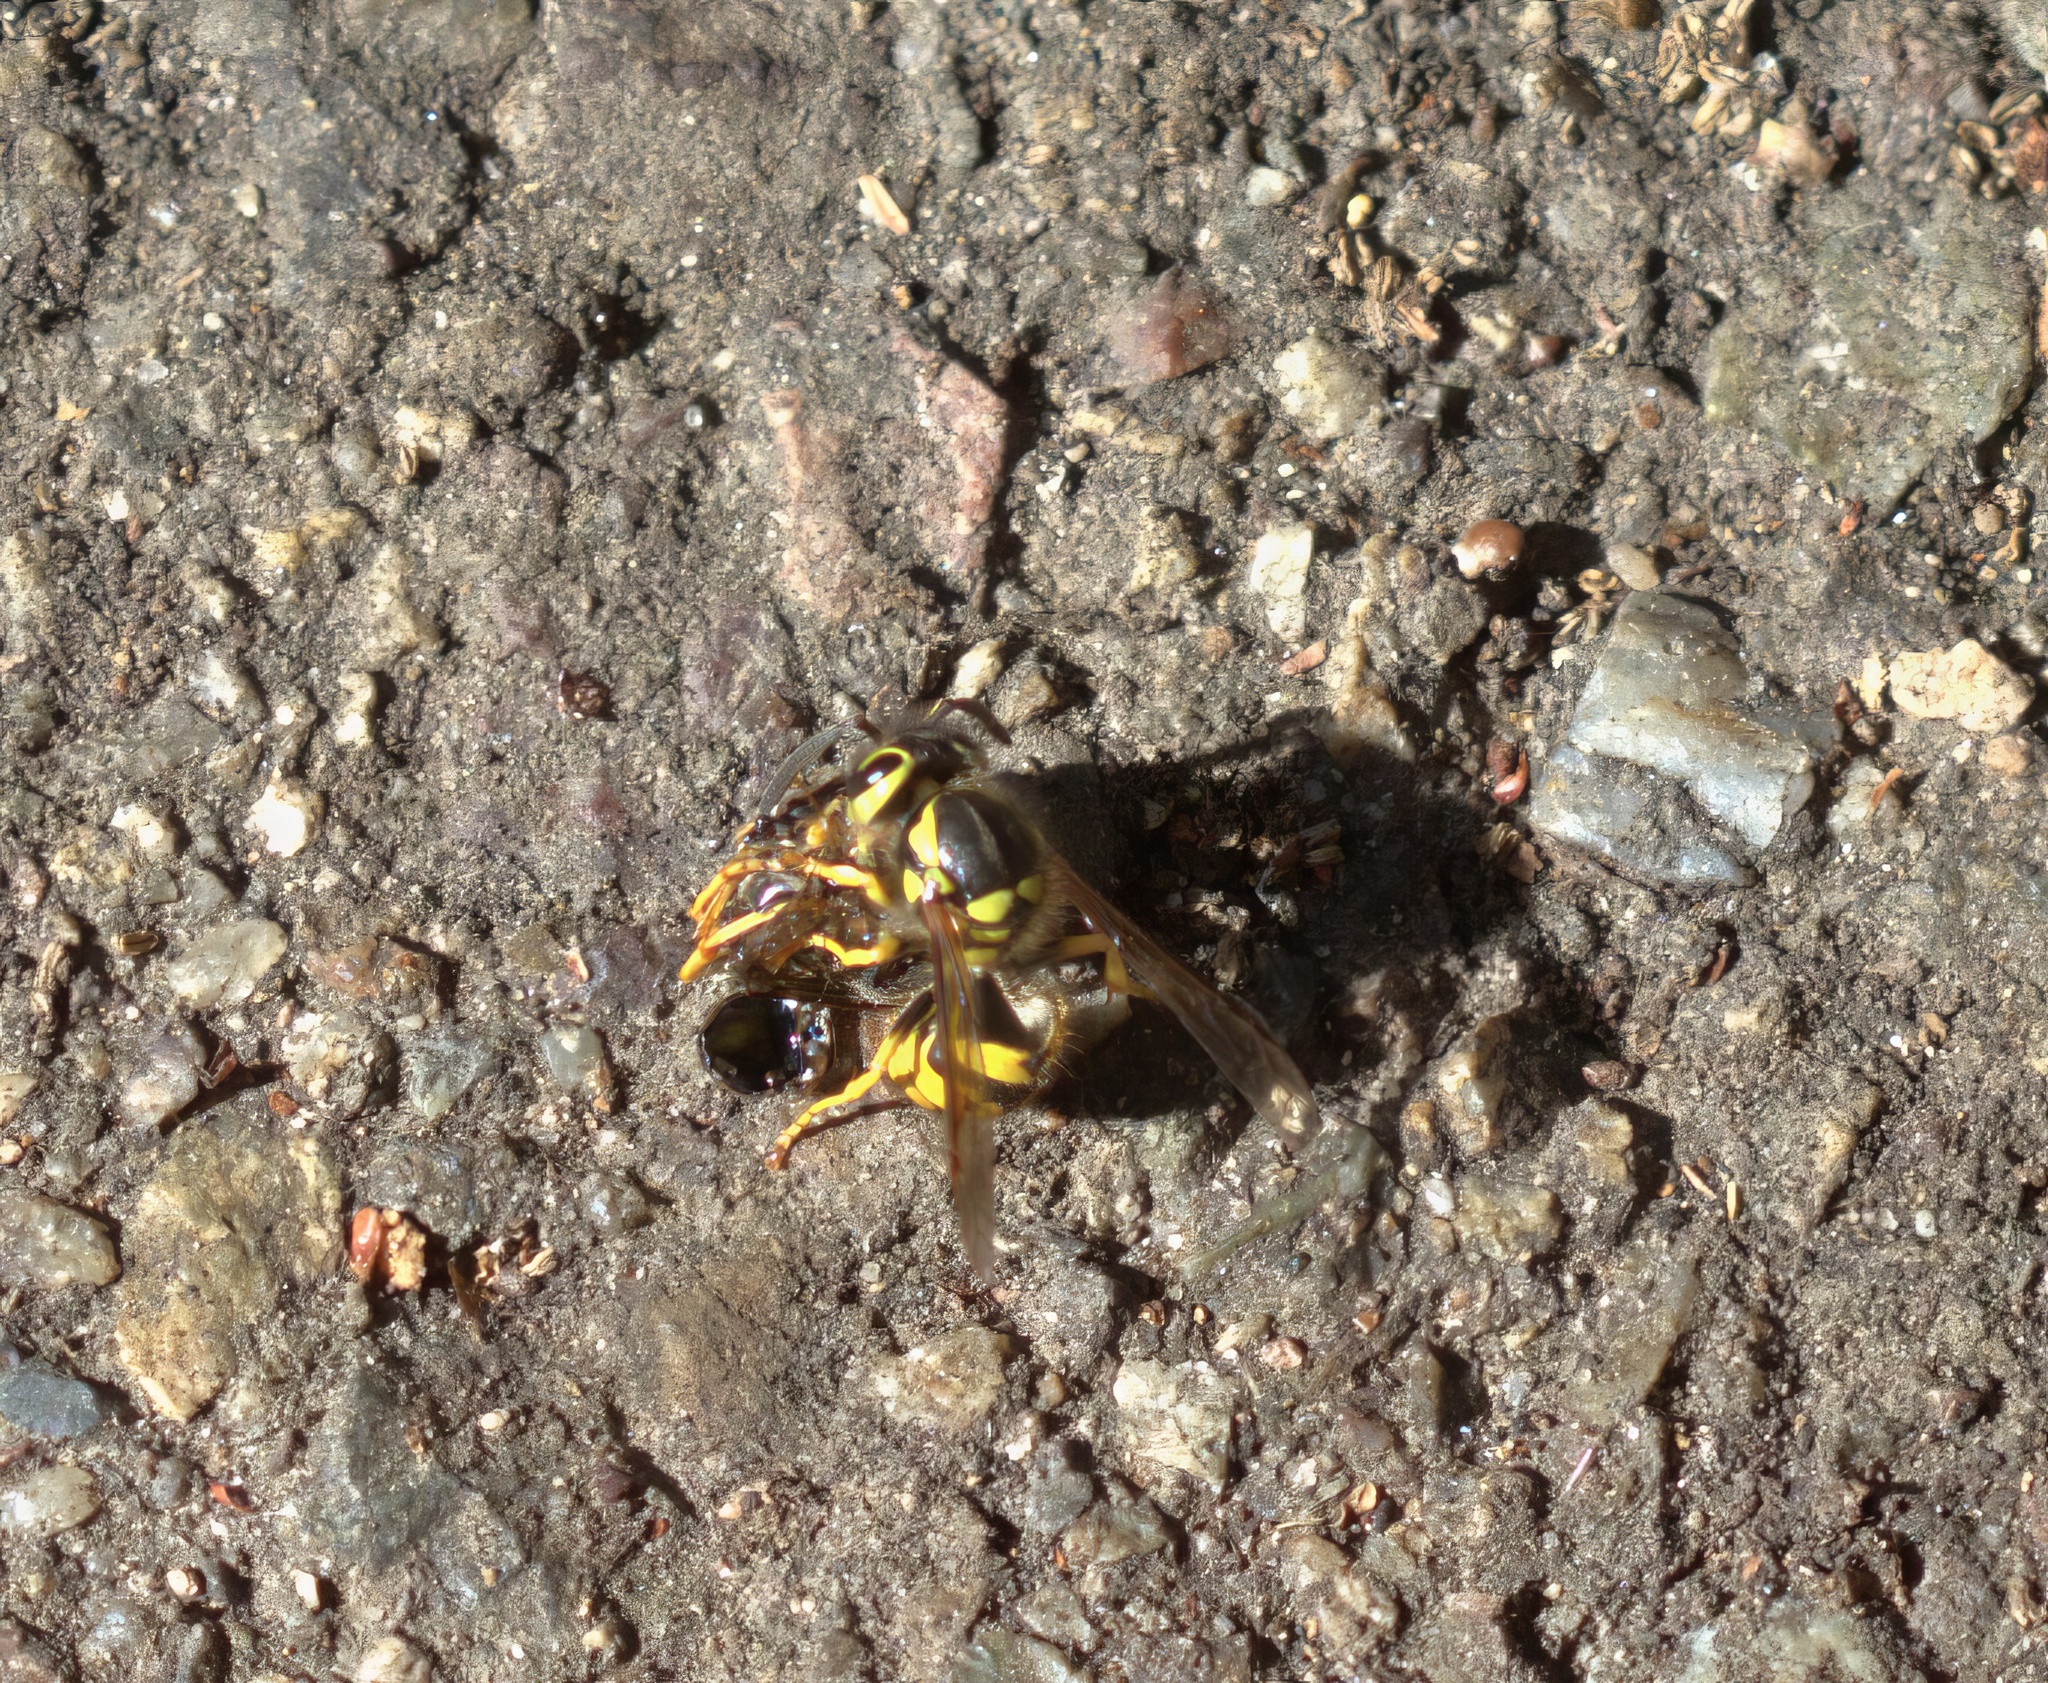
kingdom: Animalia
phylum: Arthropoda
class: Insecta
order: Hymenoptera
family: Vespidae
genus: Vespula
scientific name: Vespula pensylvanica
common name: Western yellowjacket
